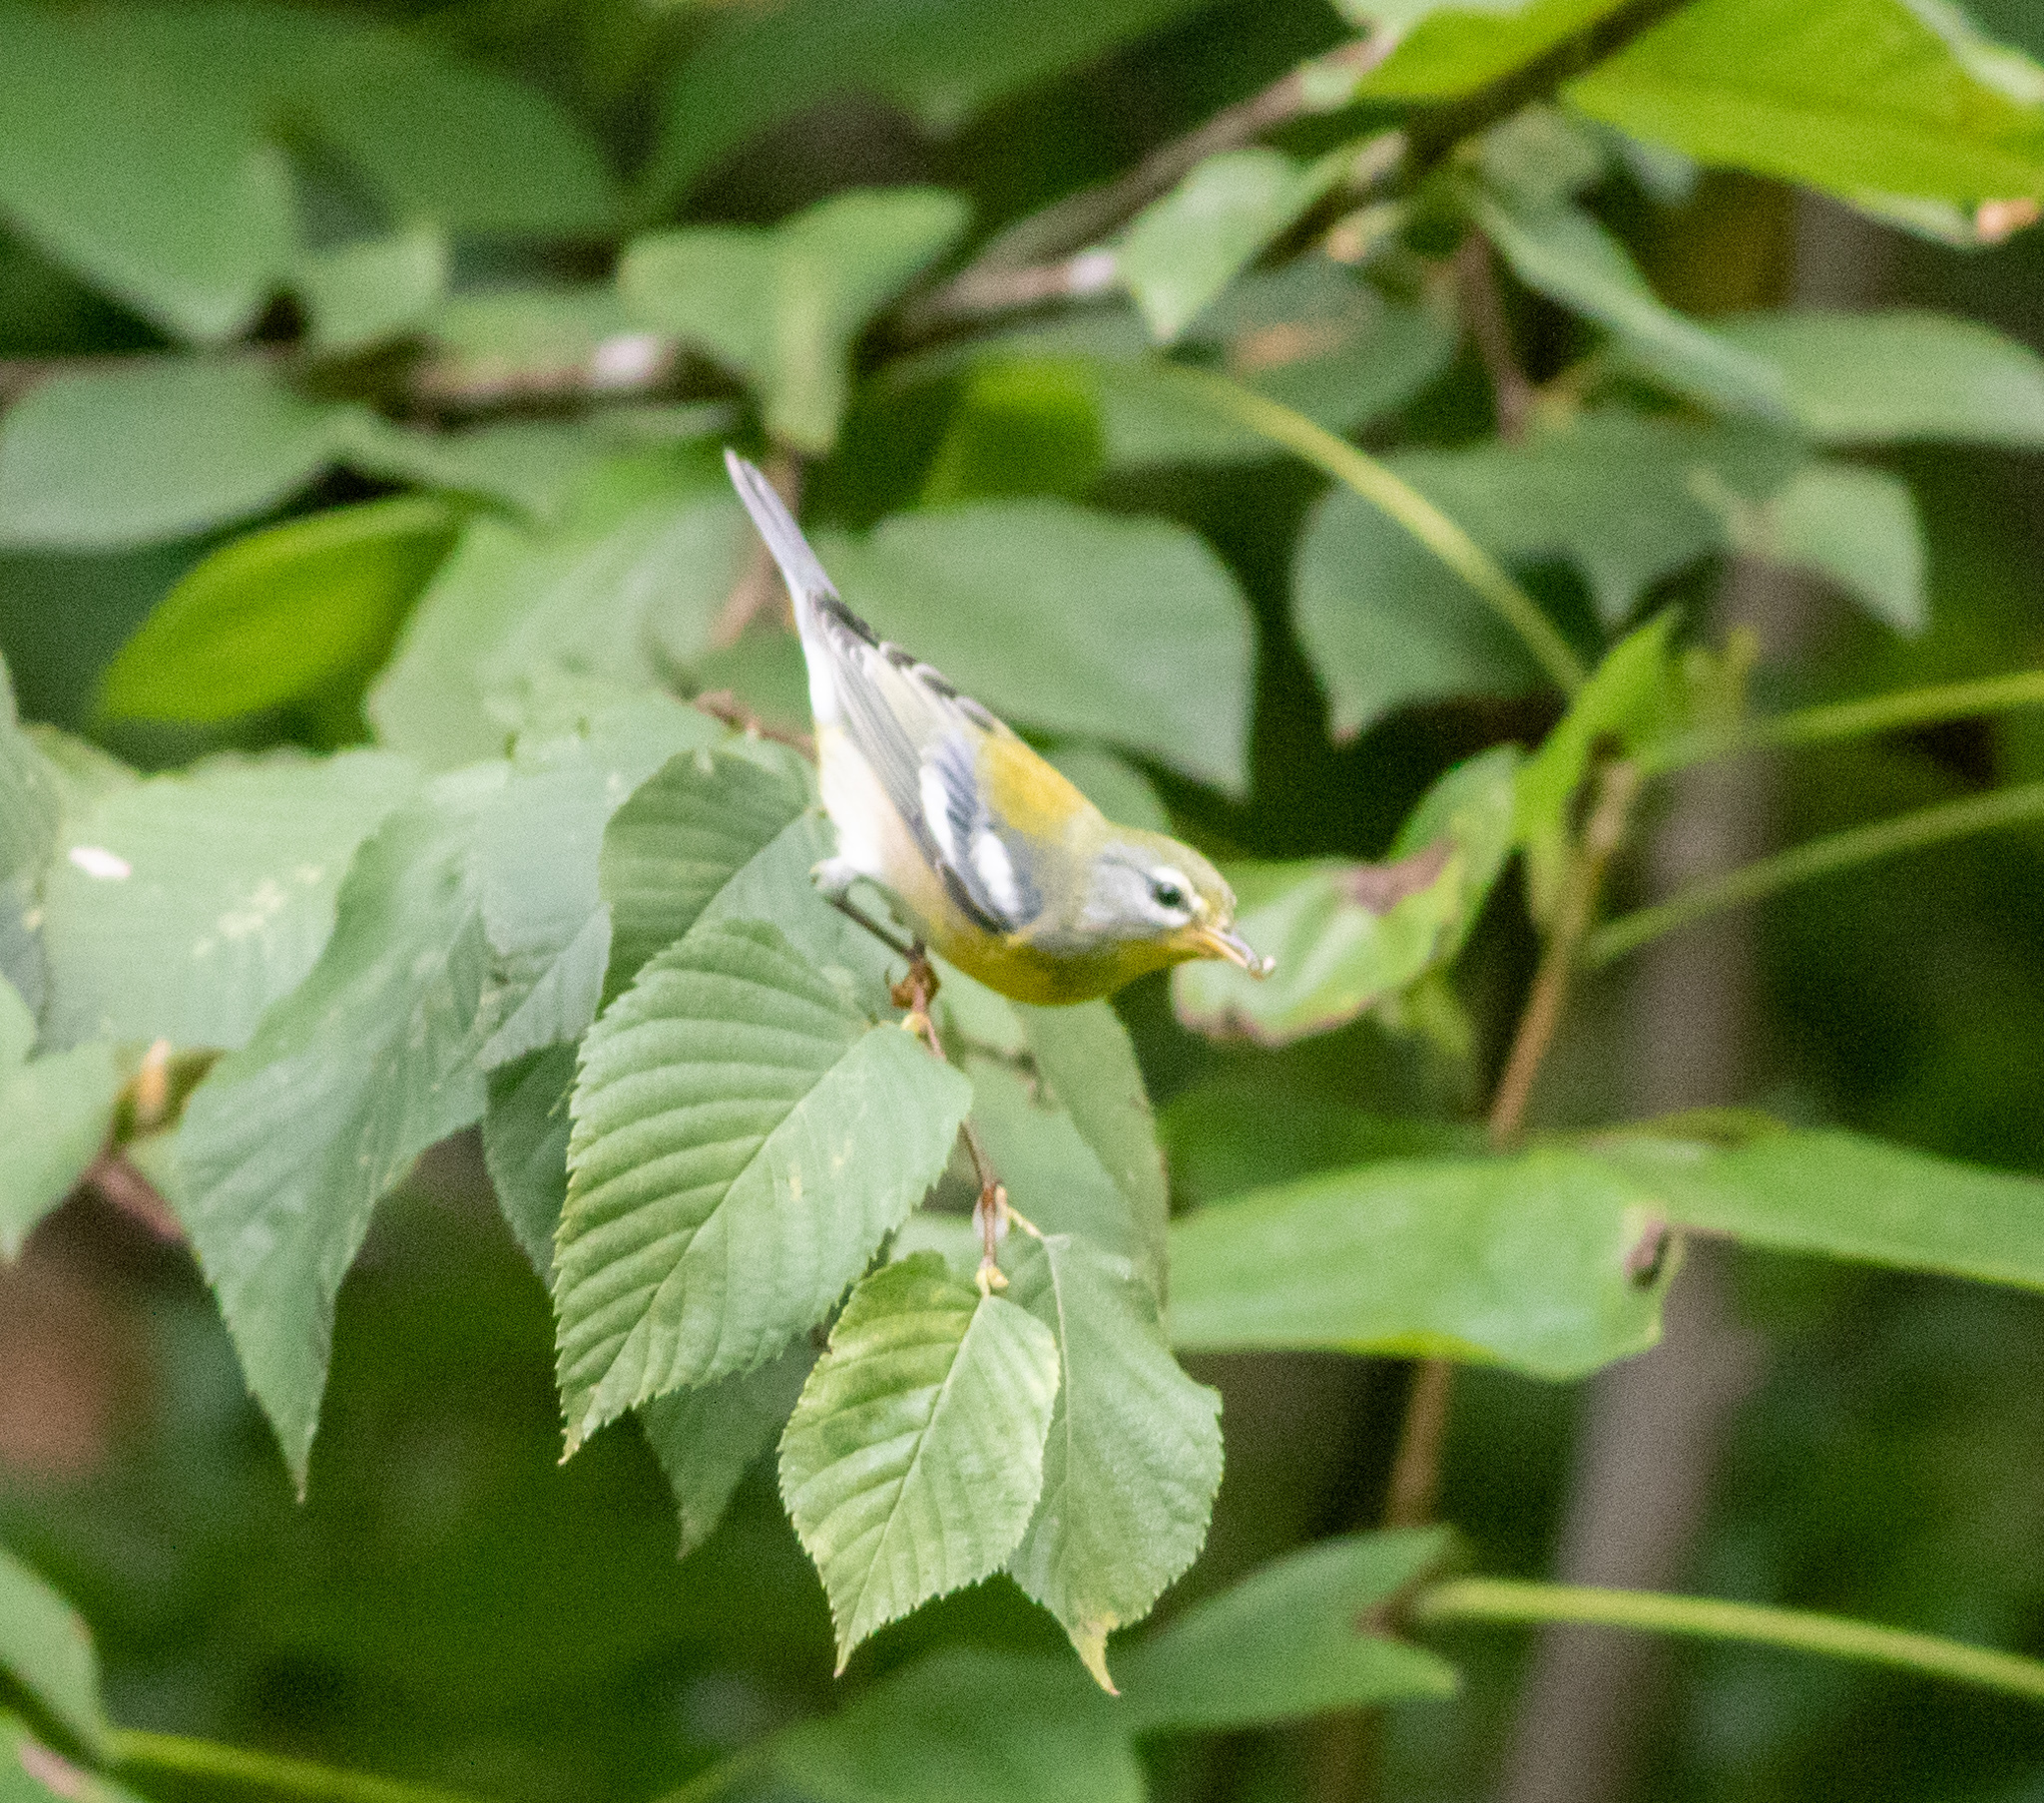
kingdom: Animalia
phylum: Chordata
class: Aves
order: Passeriformes
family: Parulidae
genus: Setophaga
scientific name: Setophaga americana
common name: Northern parula
